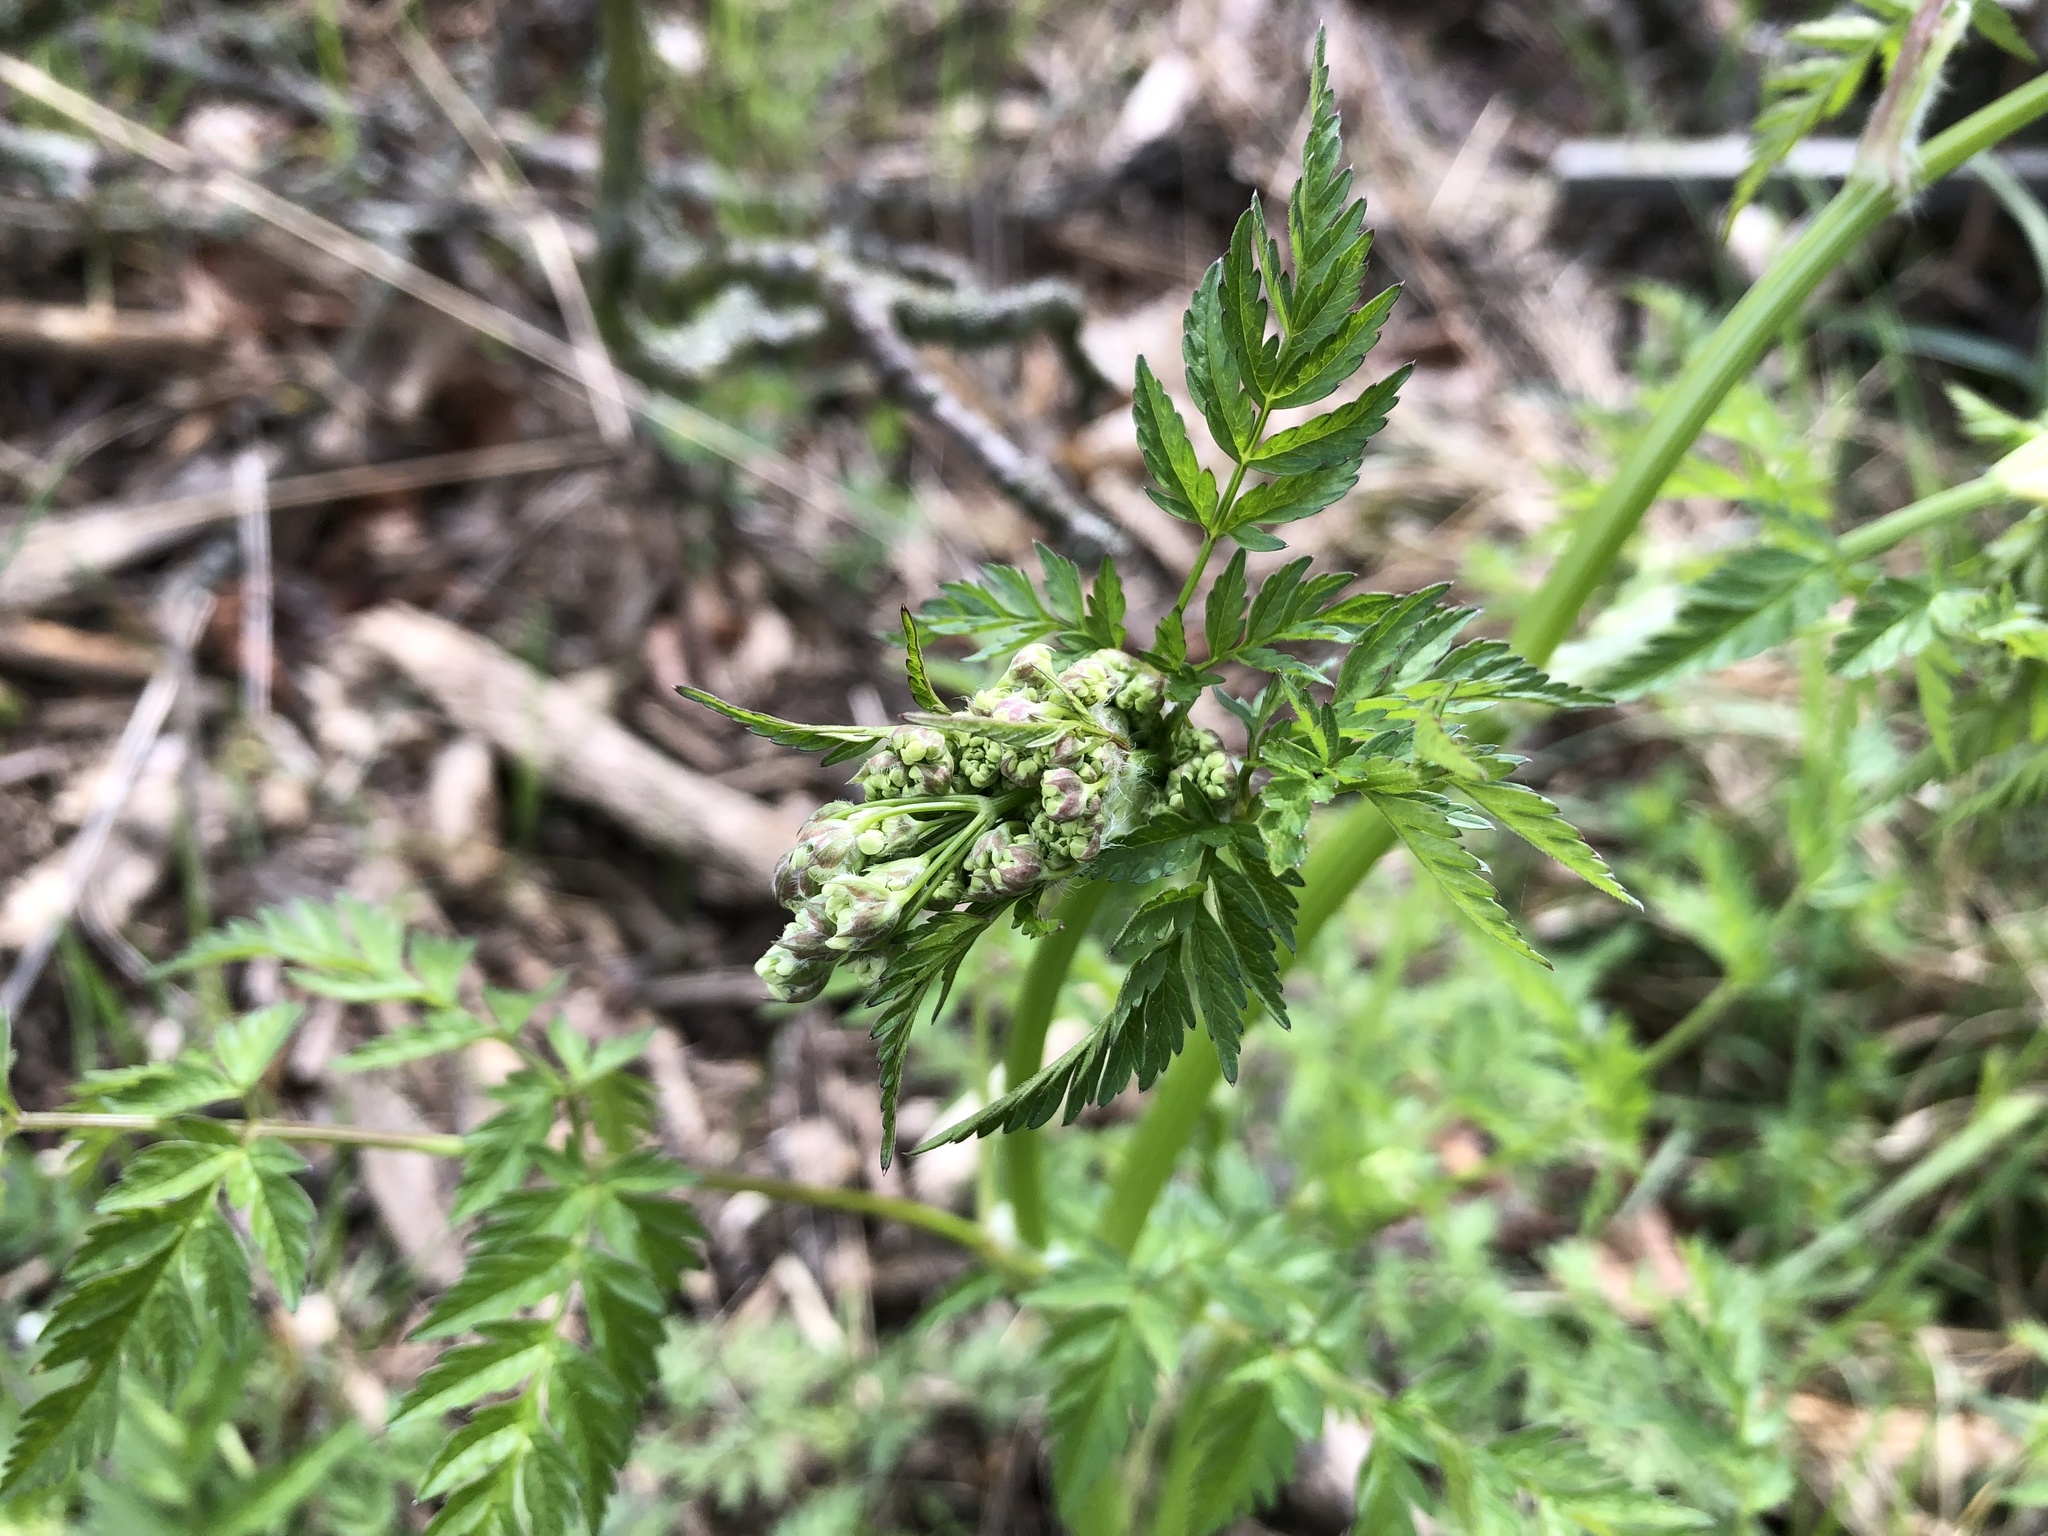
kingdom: Plantae
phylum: Tracheophyta
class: Magnoliopsida
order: Apiales
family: Apiaceae
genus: Anthriscus
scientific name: Anthriscus sylvestris
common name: Cow parsley
